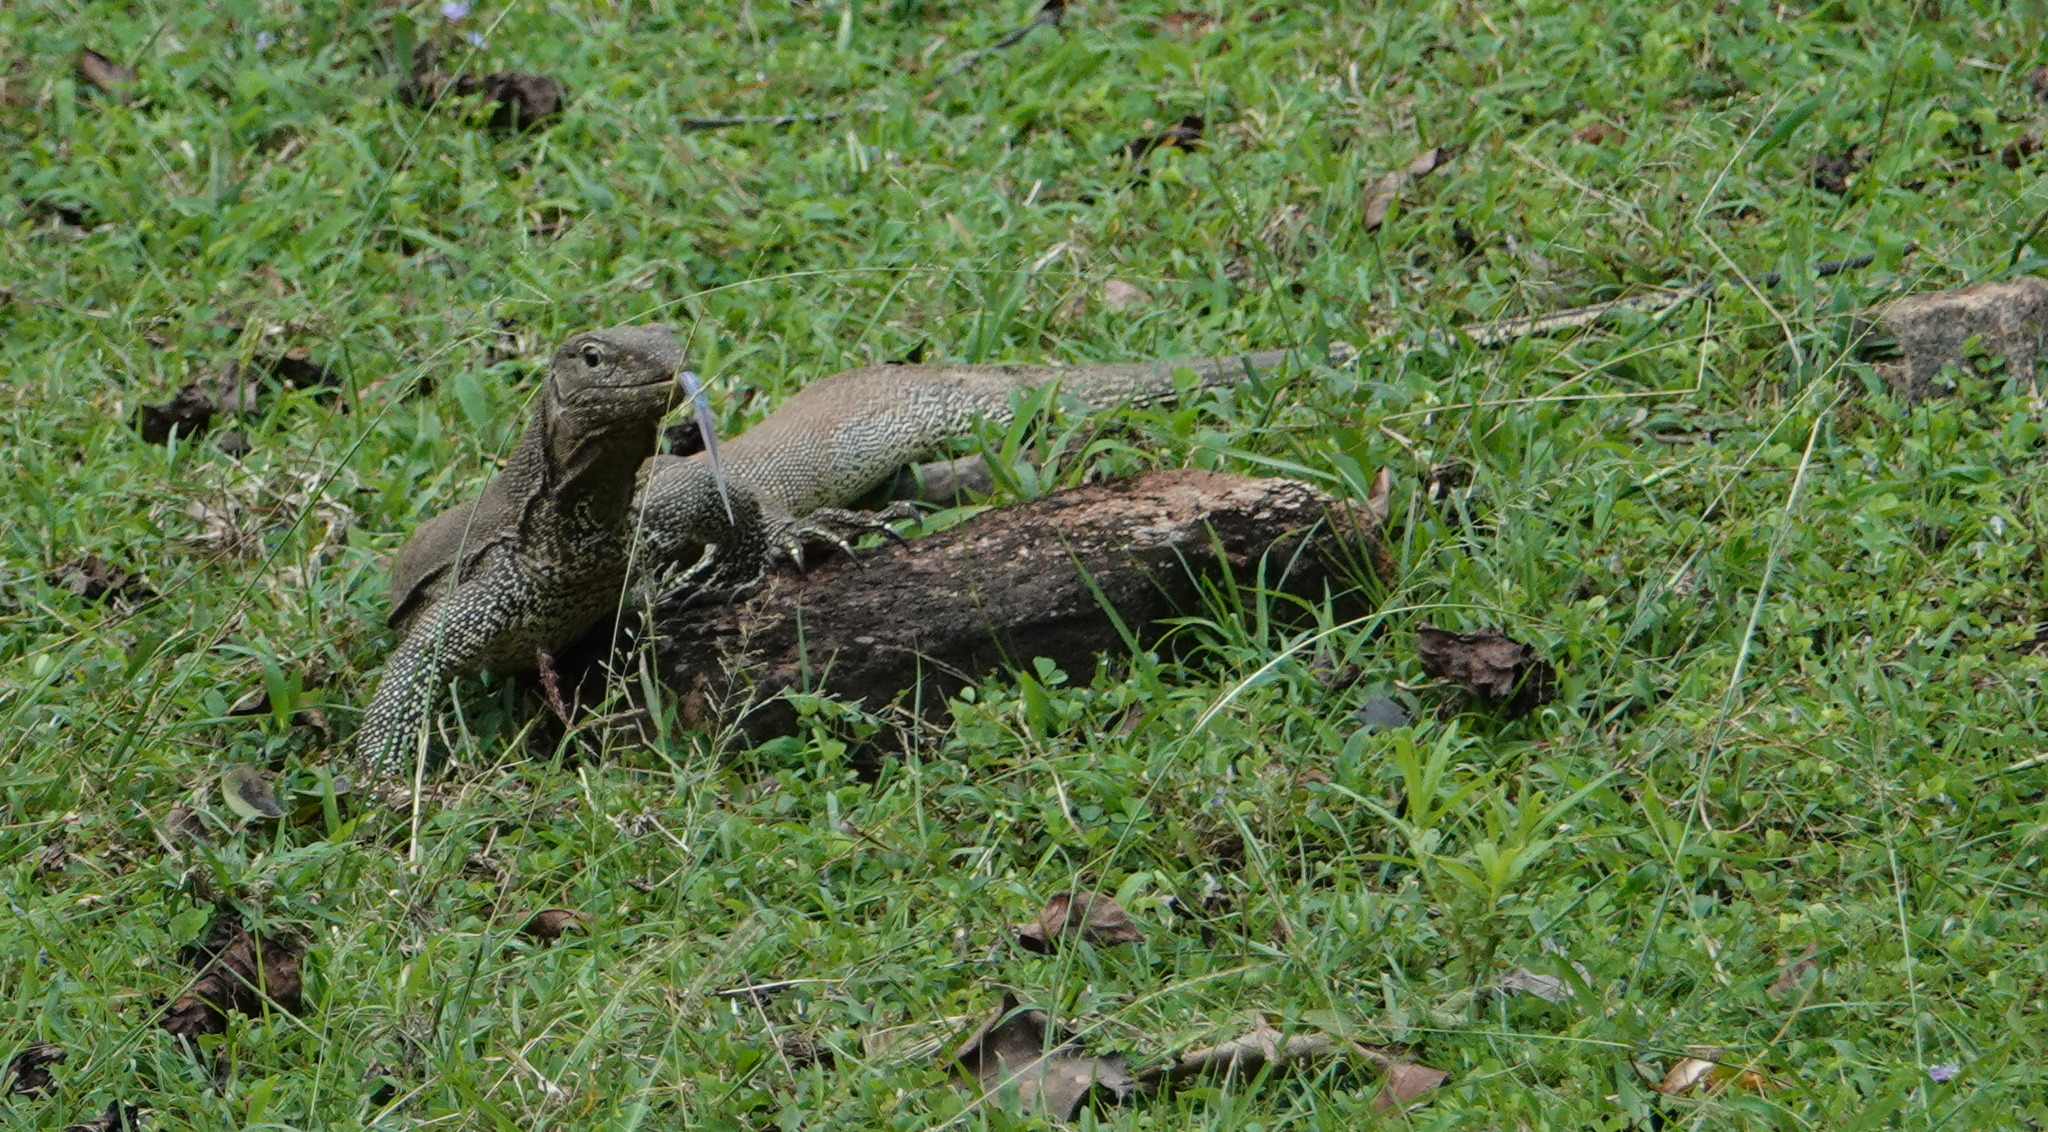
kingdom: Animalia
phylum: Chordata
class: Squamata
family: Varanidae
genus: Varanus
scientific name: Varanus bengalensis
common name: Bengal monitor
